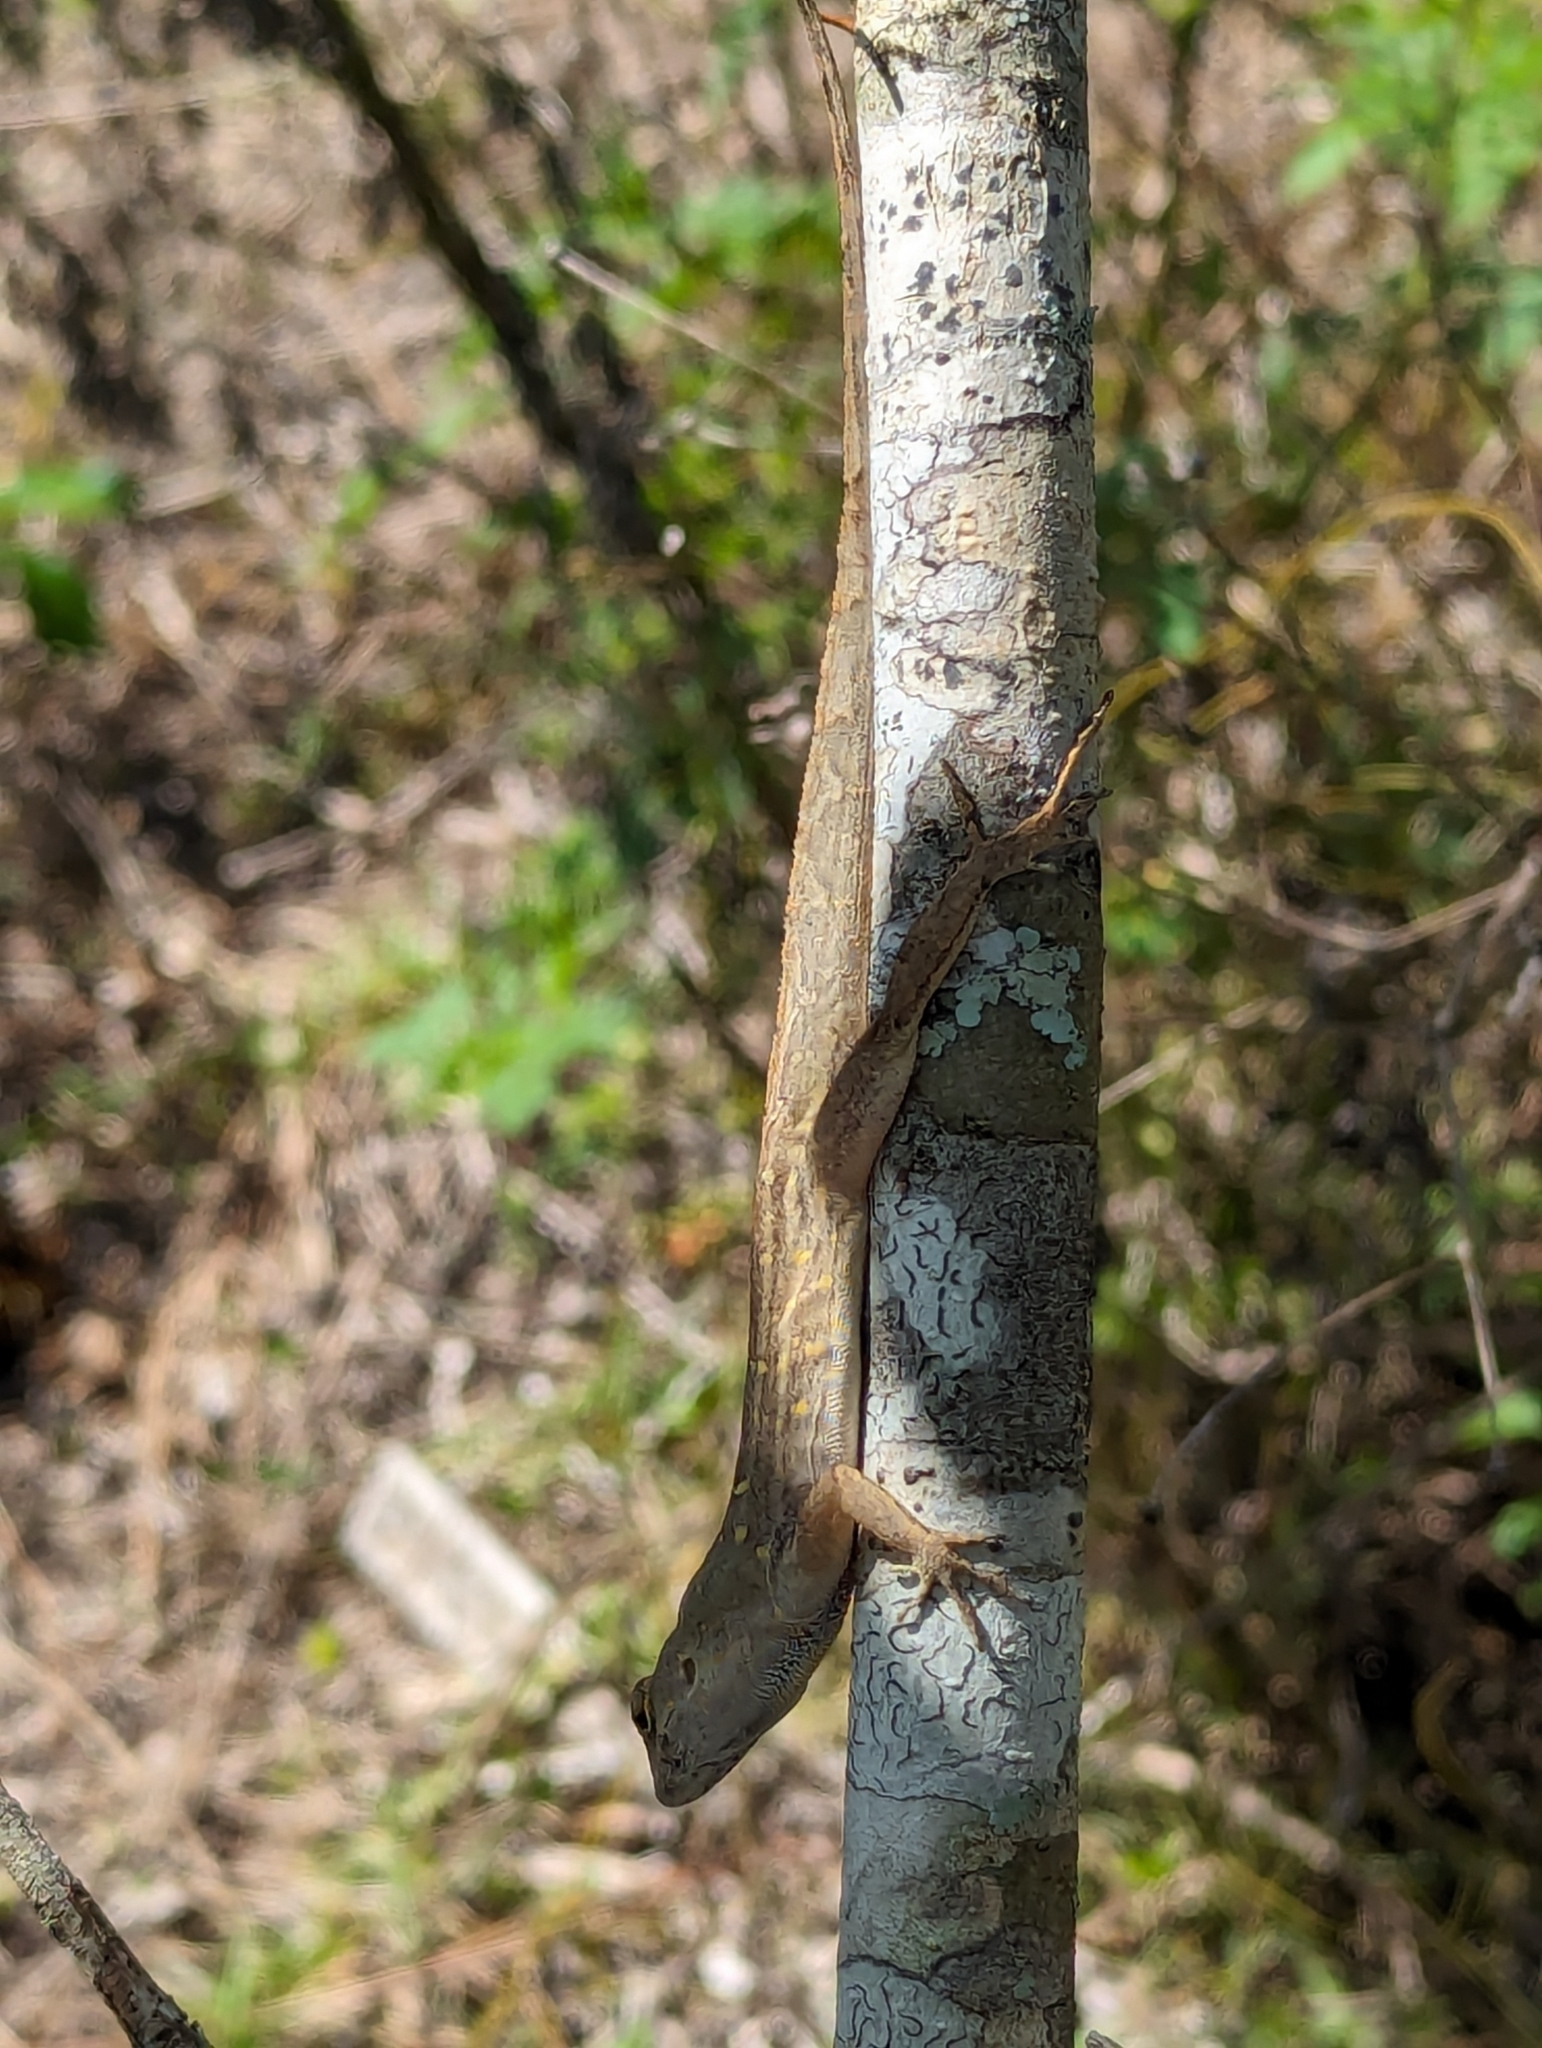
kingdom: Animalia
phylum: Chordata
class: Squamata
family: Dactyloidae
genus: Anolis
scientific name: Anolis sagrei
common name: Brown anole
